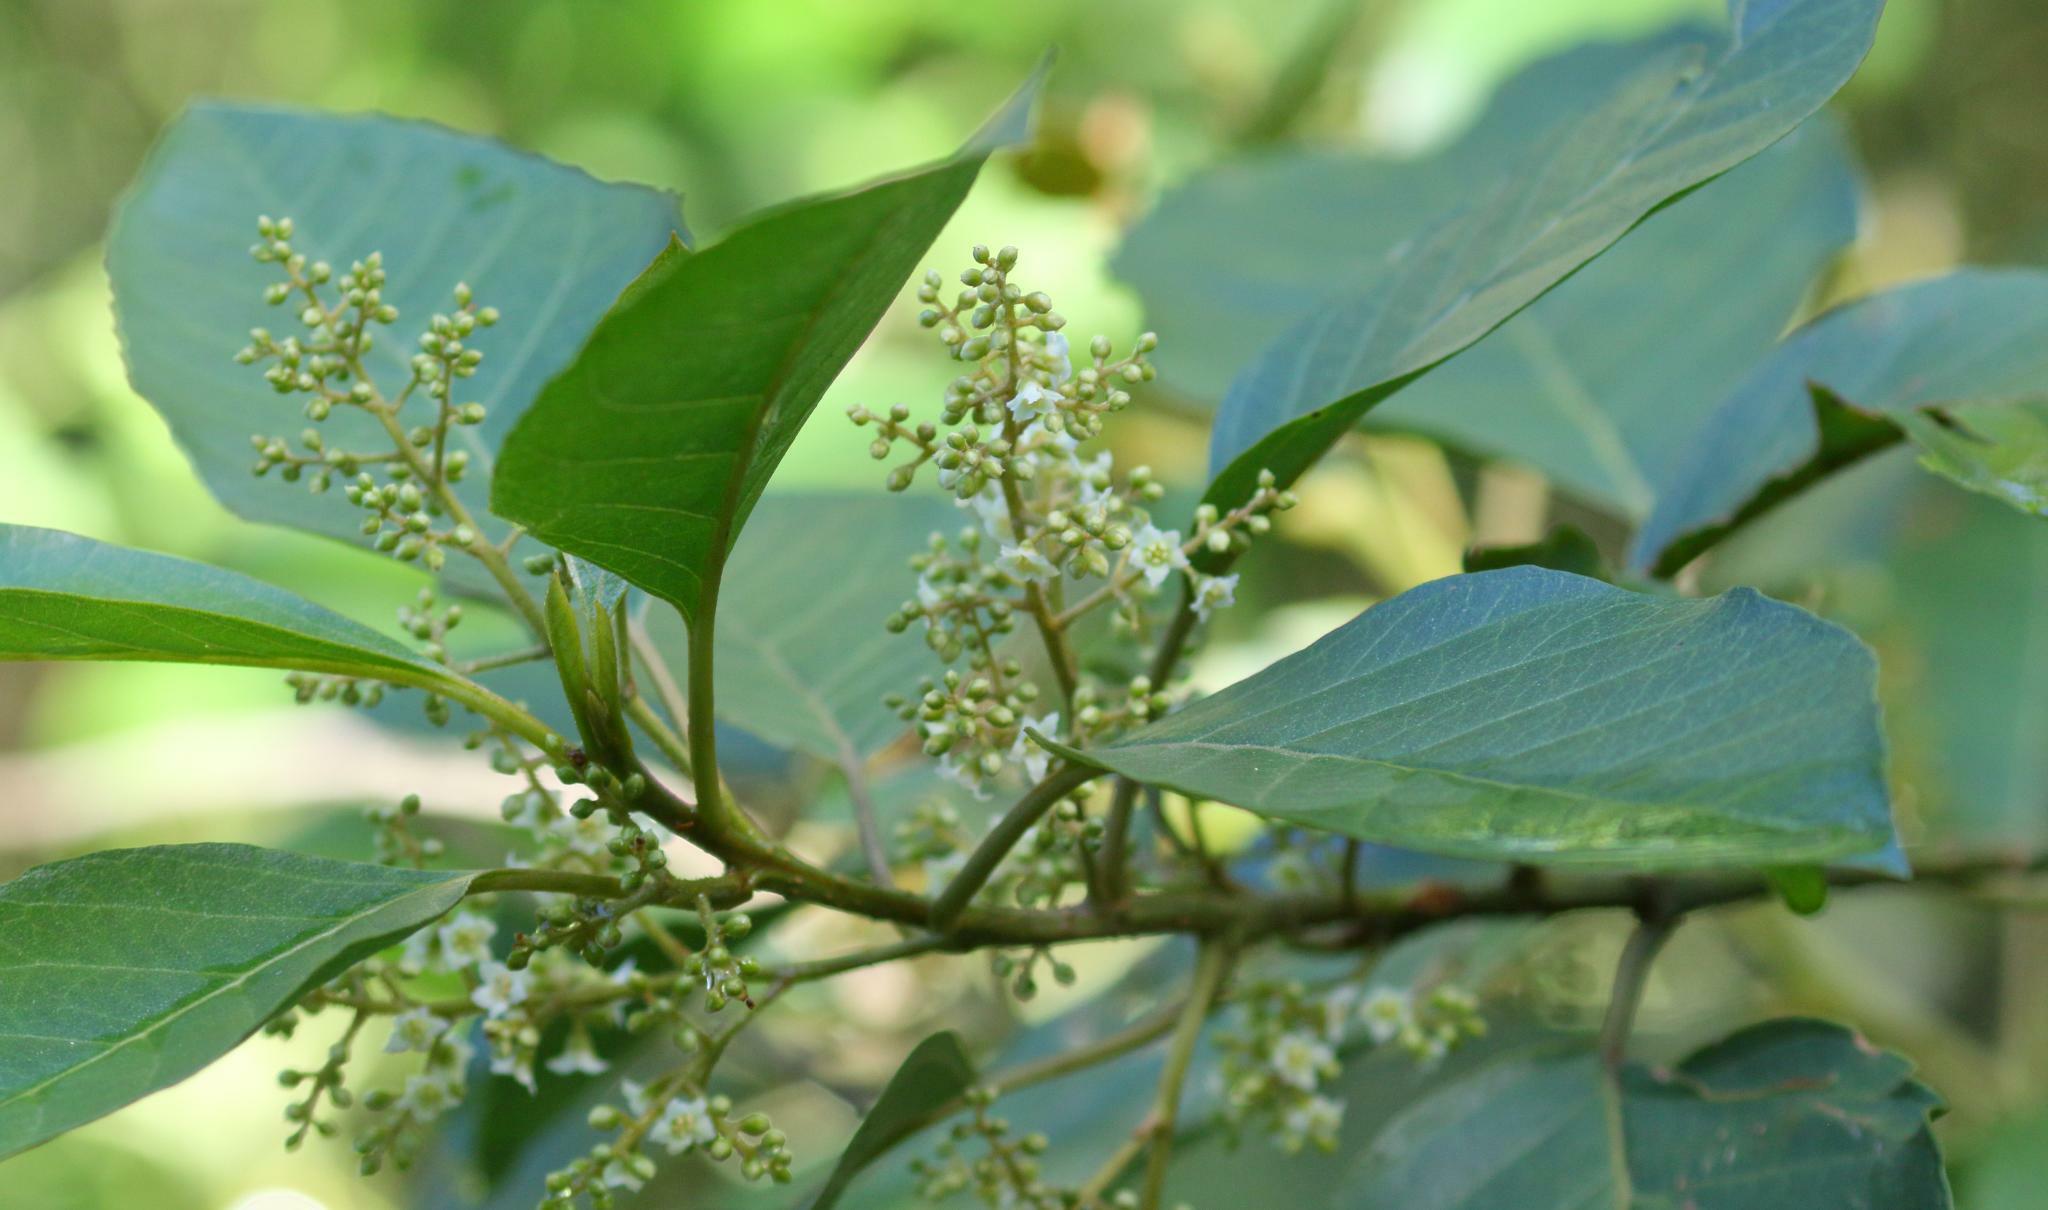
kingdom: Plantae
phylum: Tracheophyta
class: Magnoliopsida
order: Ericales
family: Primulaceae
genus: Maesa
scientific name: Maesa lanceolata
